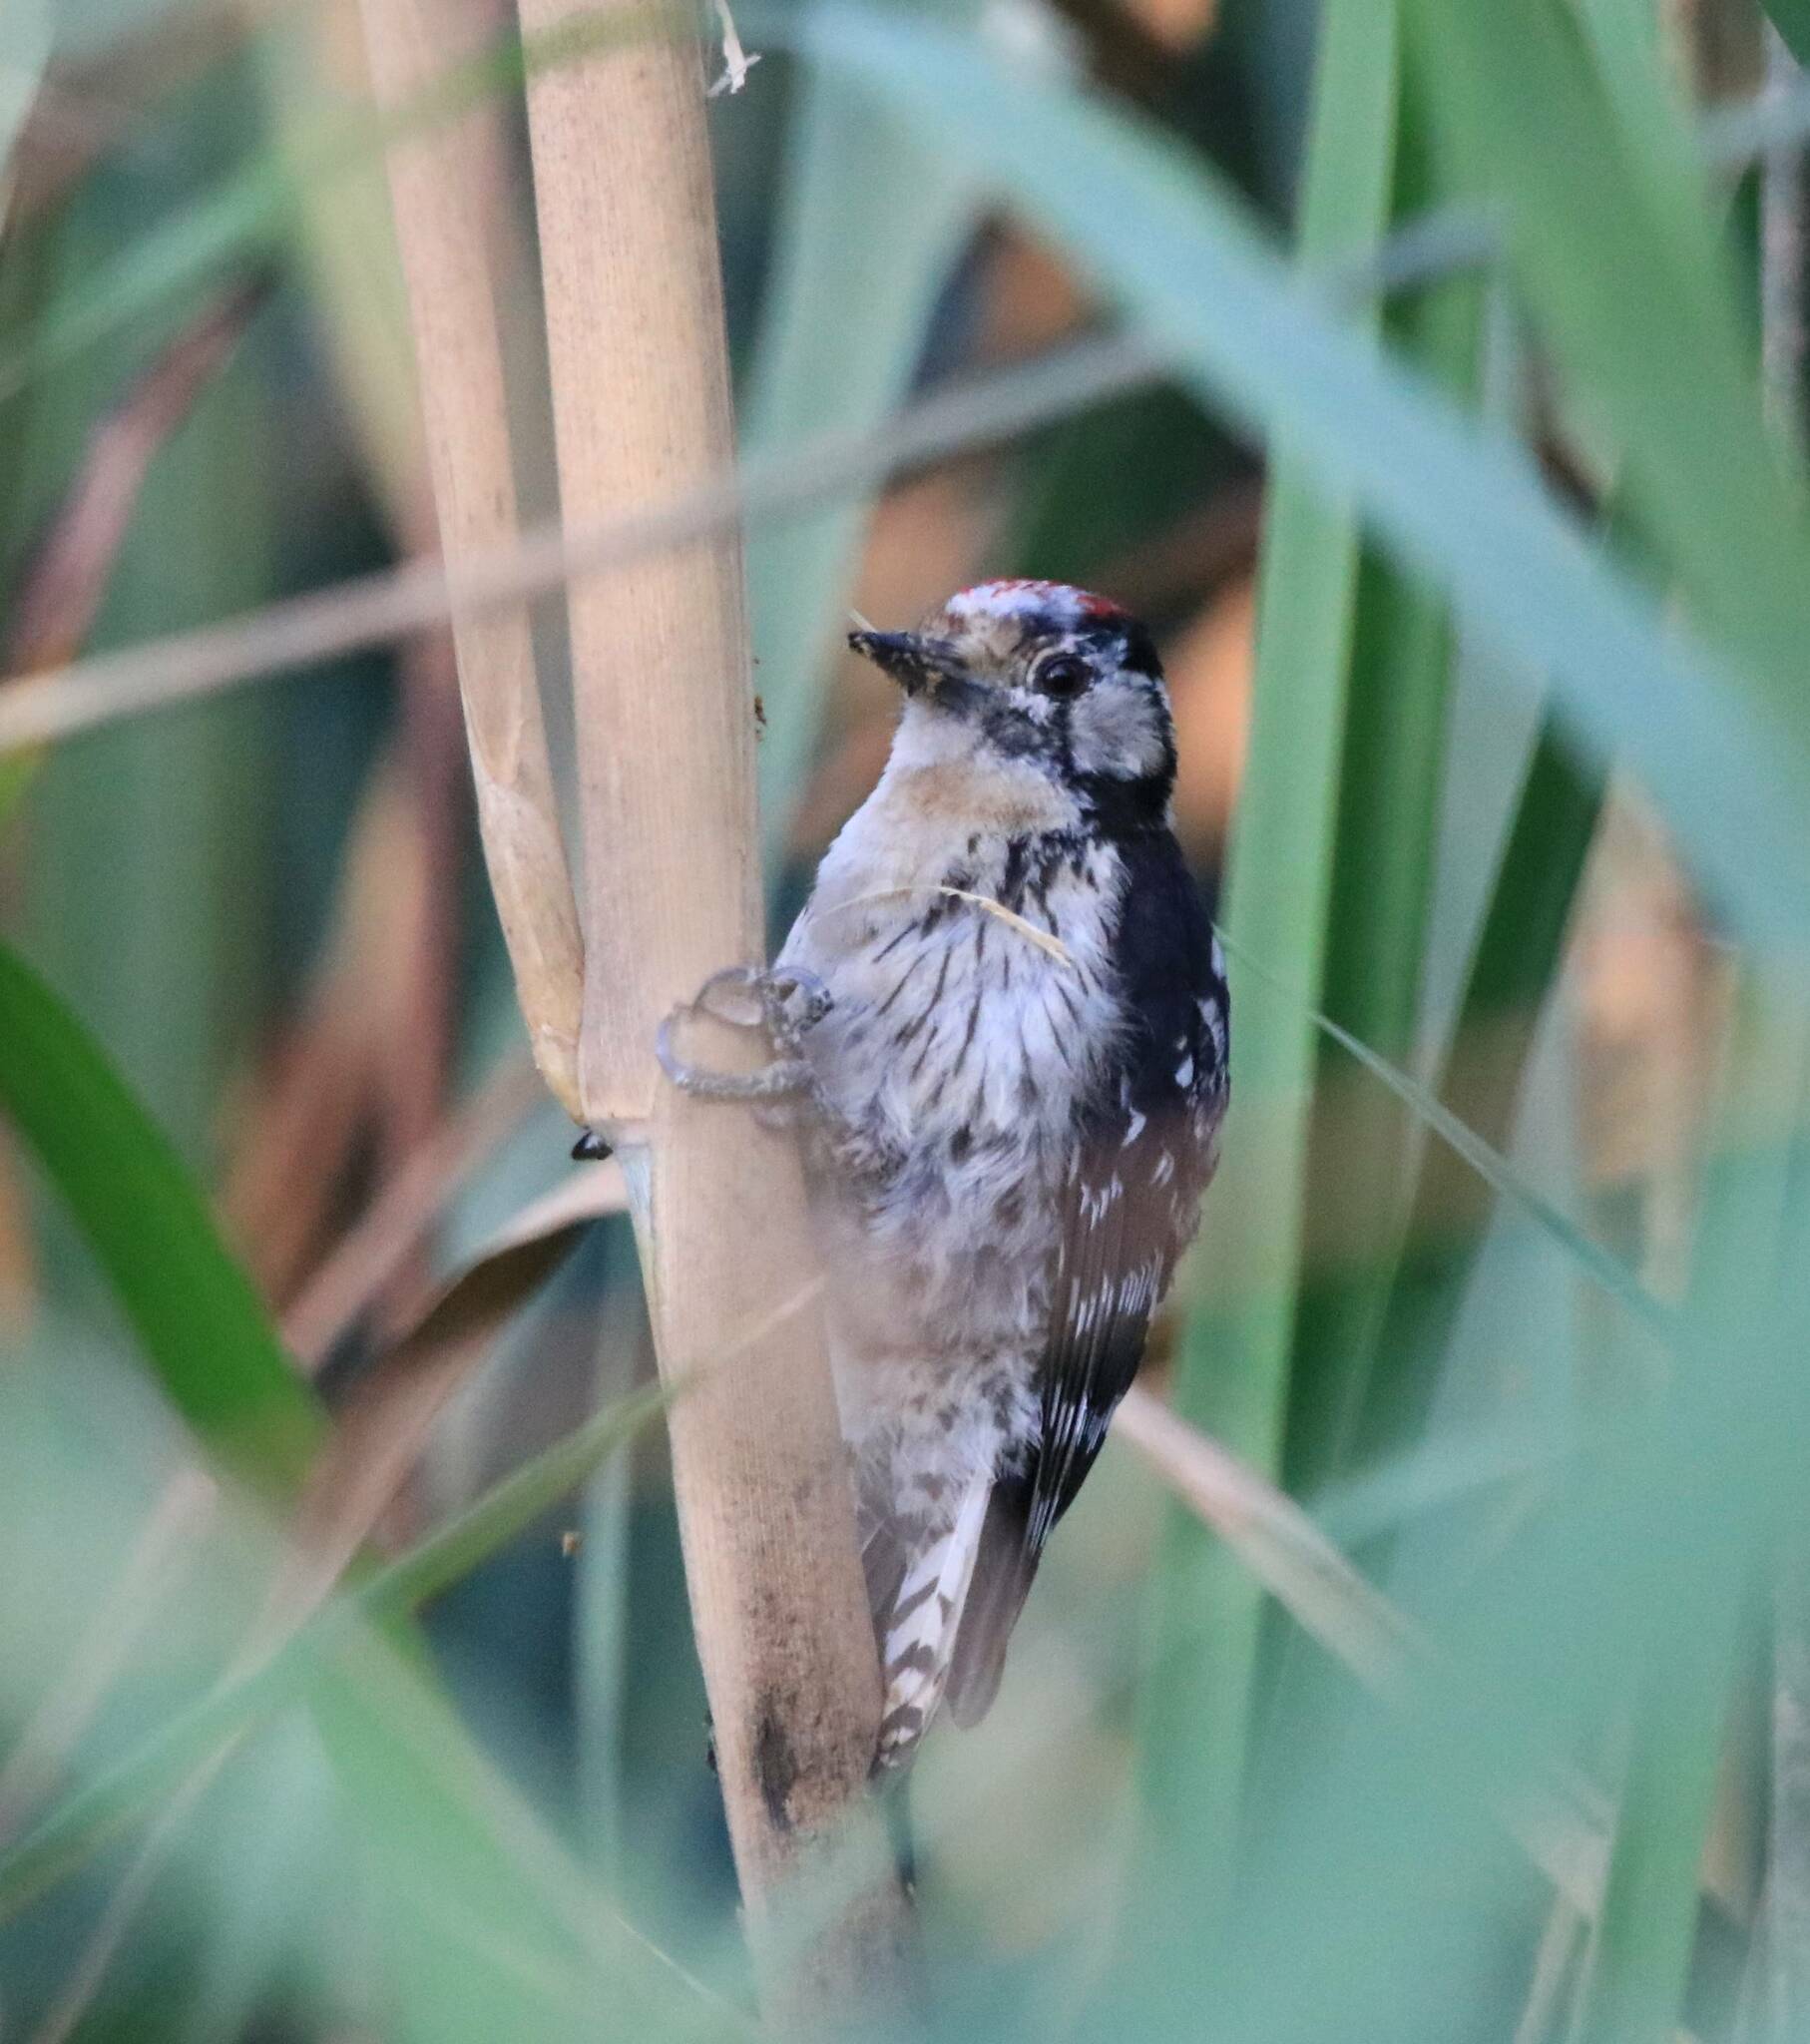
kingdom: Animalia
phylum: Chordata
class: Aves
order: Piciformes
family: Picidae
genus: Dryobates
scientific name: Dryobates minor
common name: Lesser spotted woodpecker
